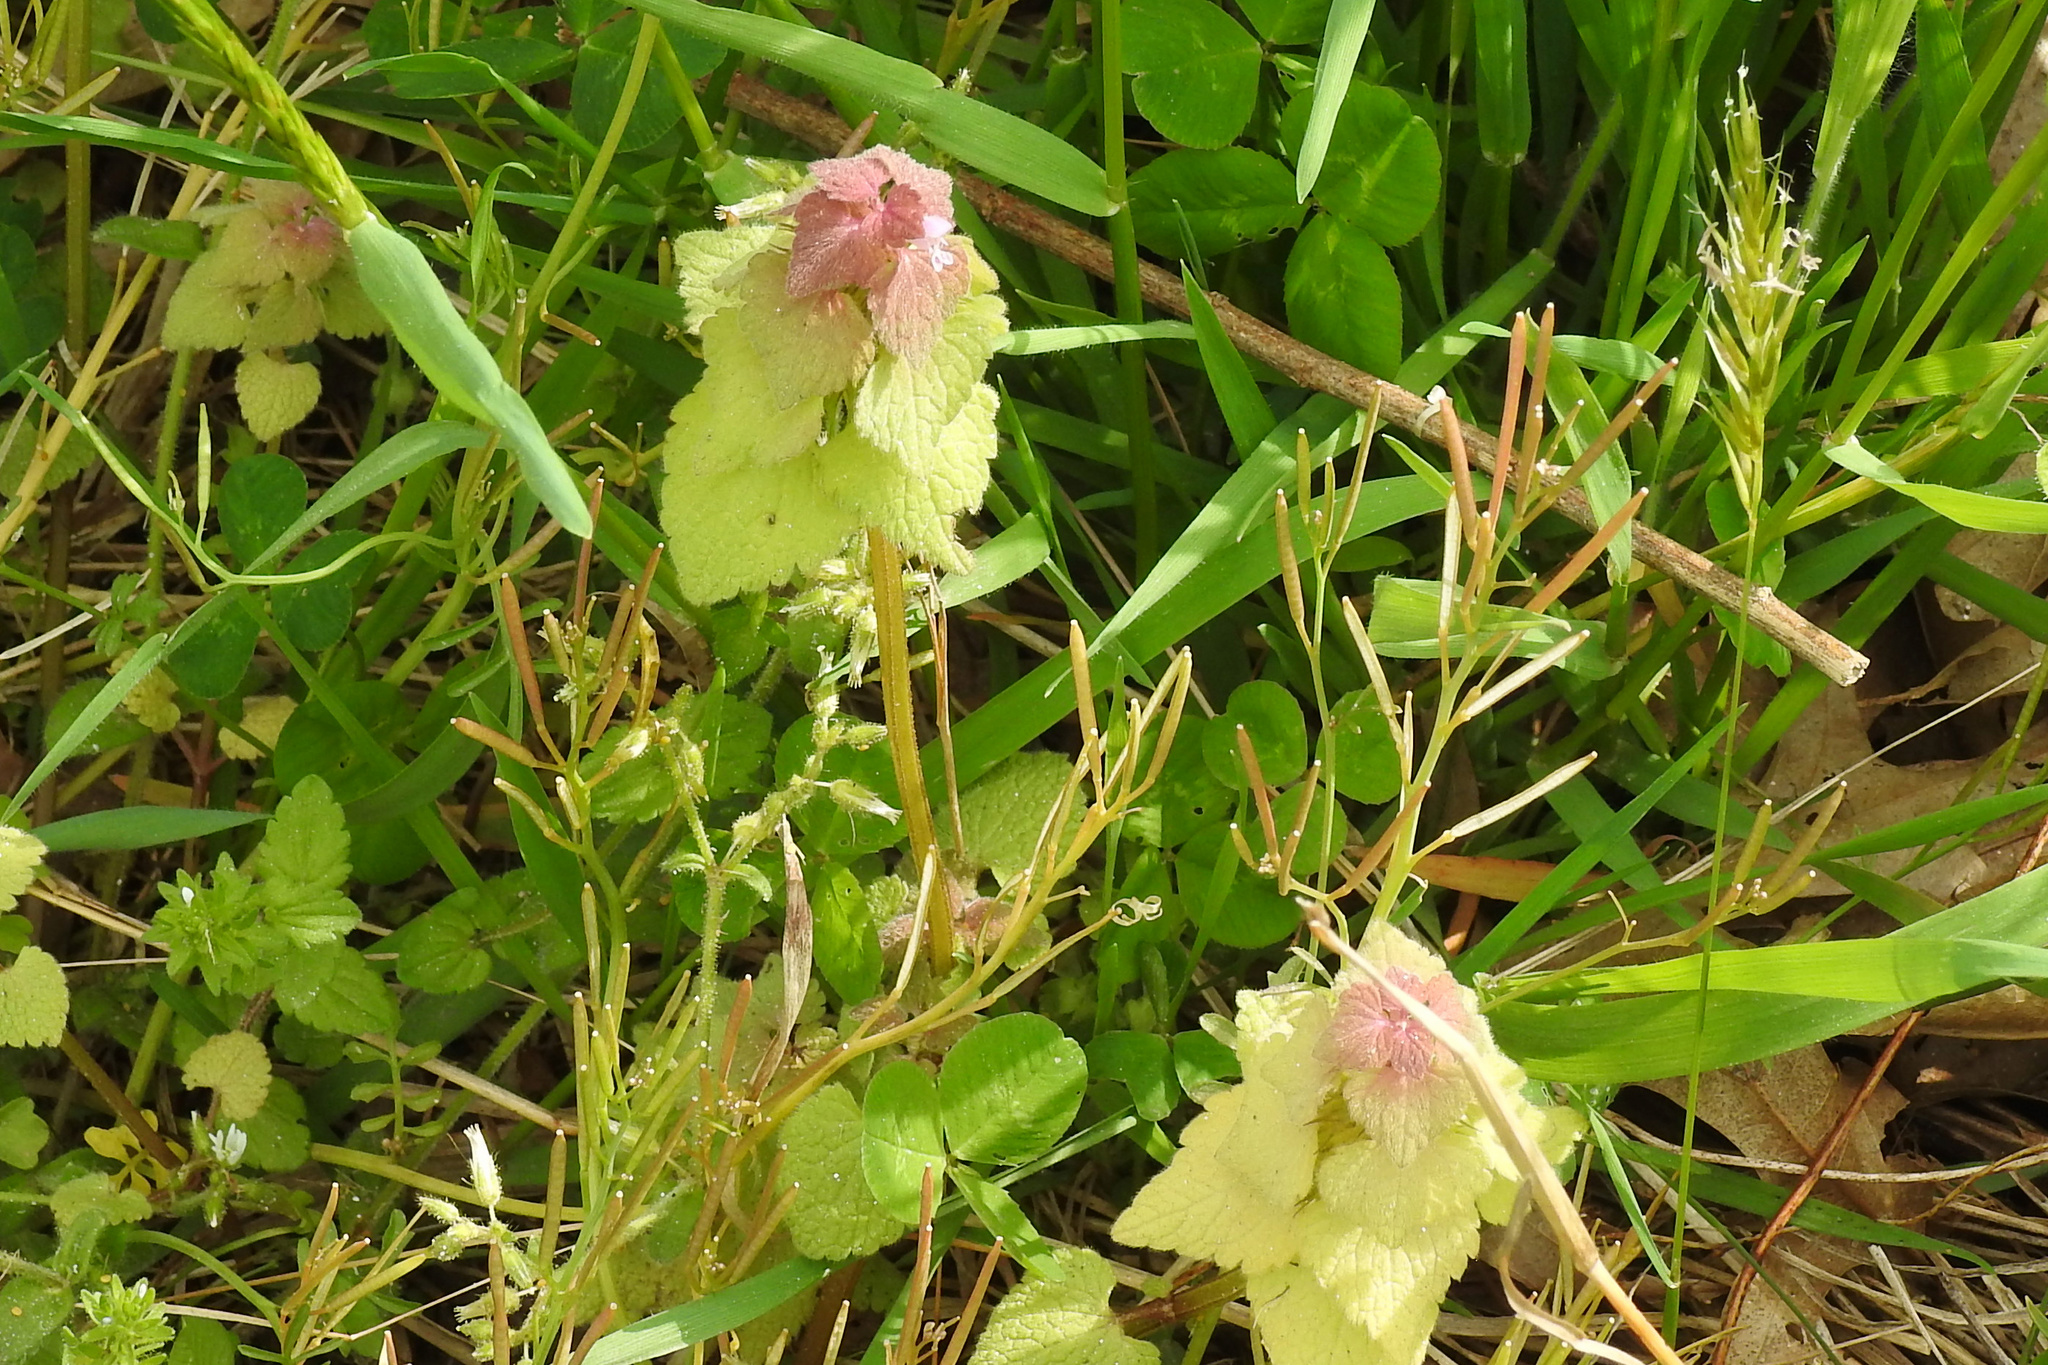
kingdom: Plantae
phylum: Tracheophyta
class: Magnoliopsida
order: Lamiales
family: Lamiaceae
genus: Lamium
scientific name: Lamium purpureum
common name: Red dead-nettle
